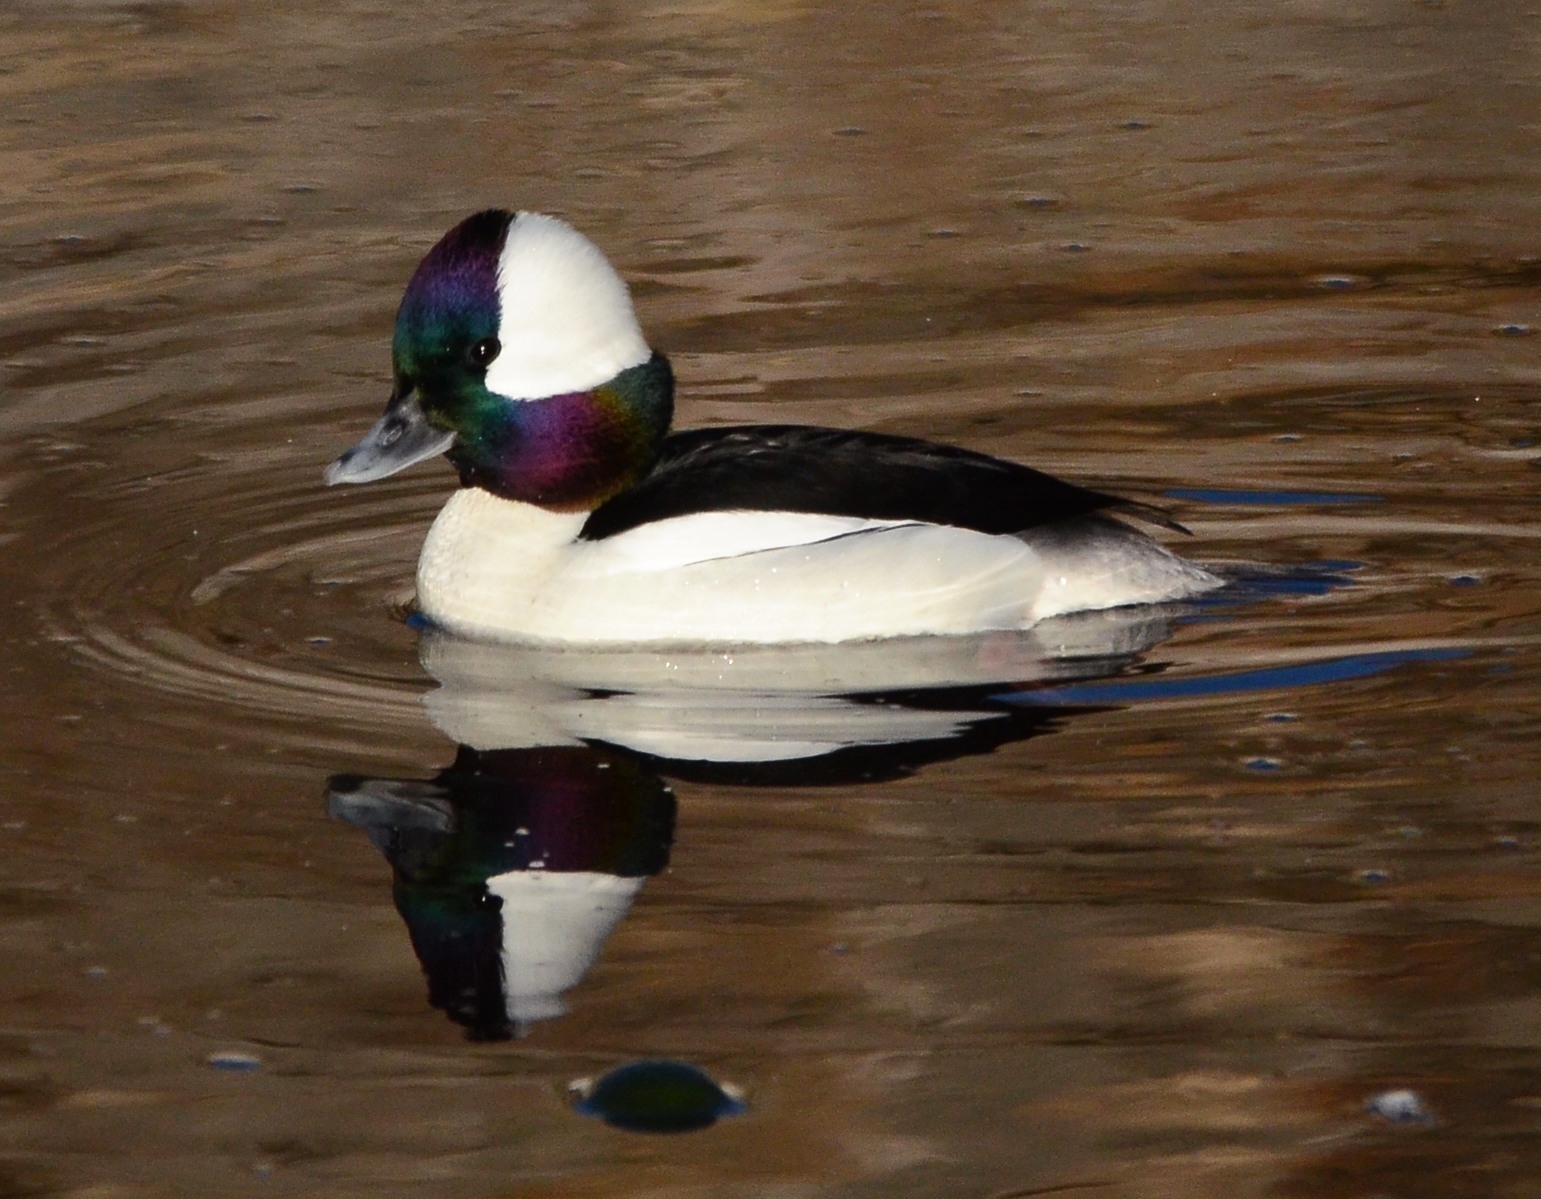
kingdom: Animalia
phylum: Chordata
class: Aves
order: Anseriformes
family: Anatidae
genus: Bucephala
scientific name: Bucephala albeola
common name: Bufflehead
